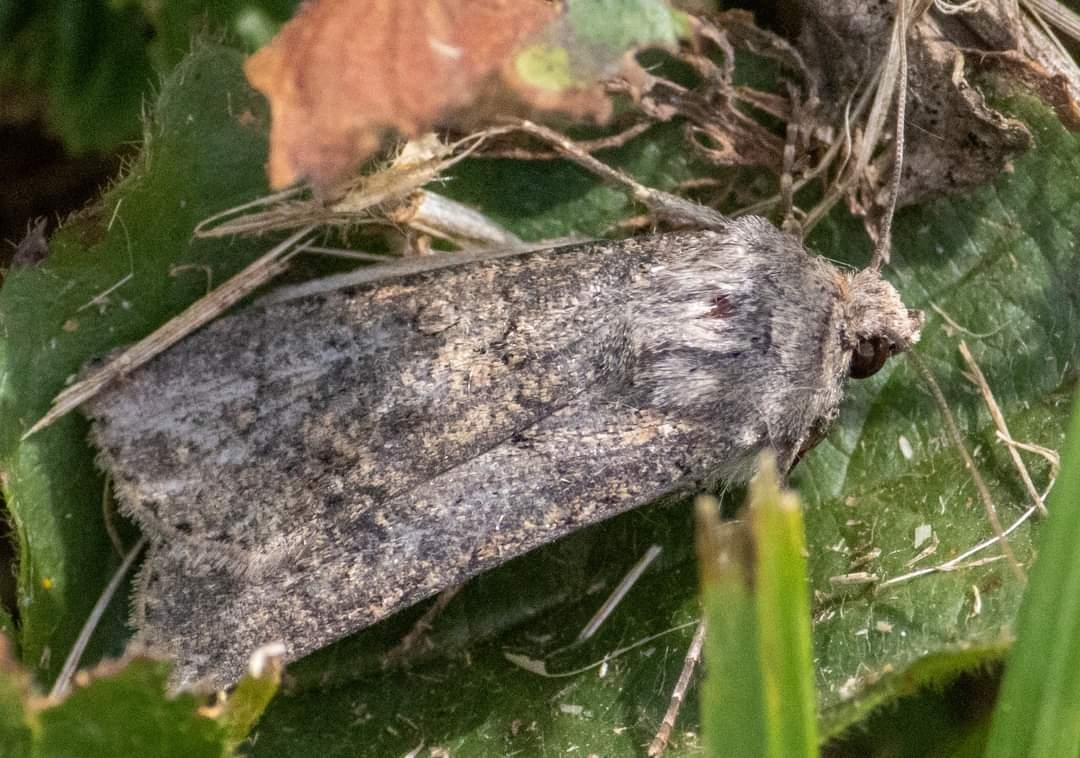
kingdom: Animalia
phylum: Arthropoda
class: Insecta
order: Lepidoptera
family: Noctuidae
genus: Agrotis
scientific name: Agrotis segetum
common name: Turnip moth
